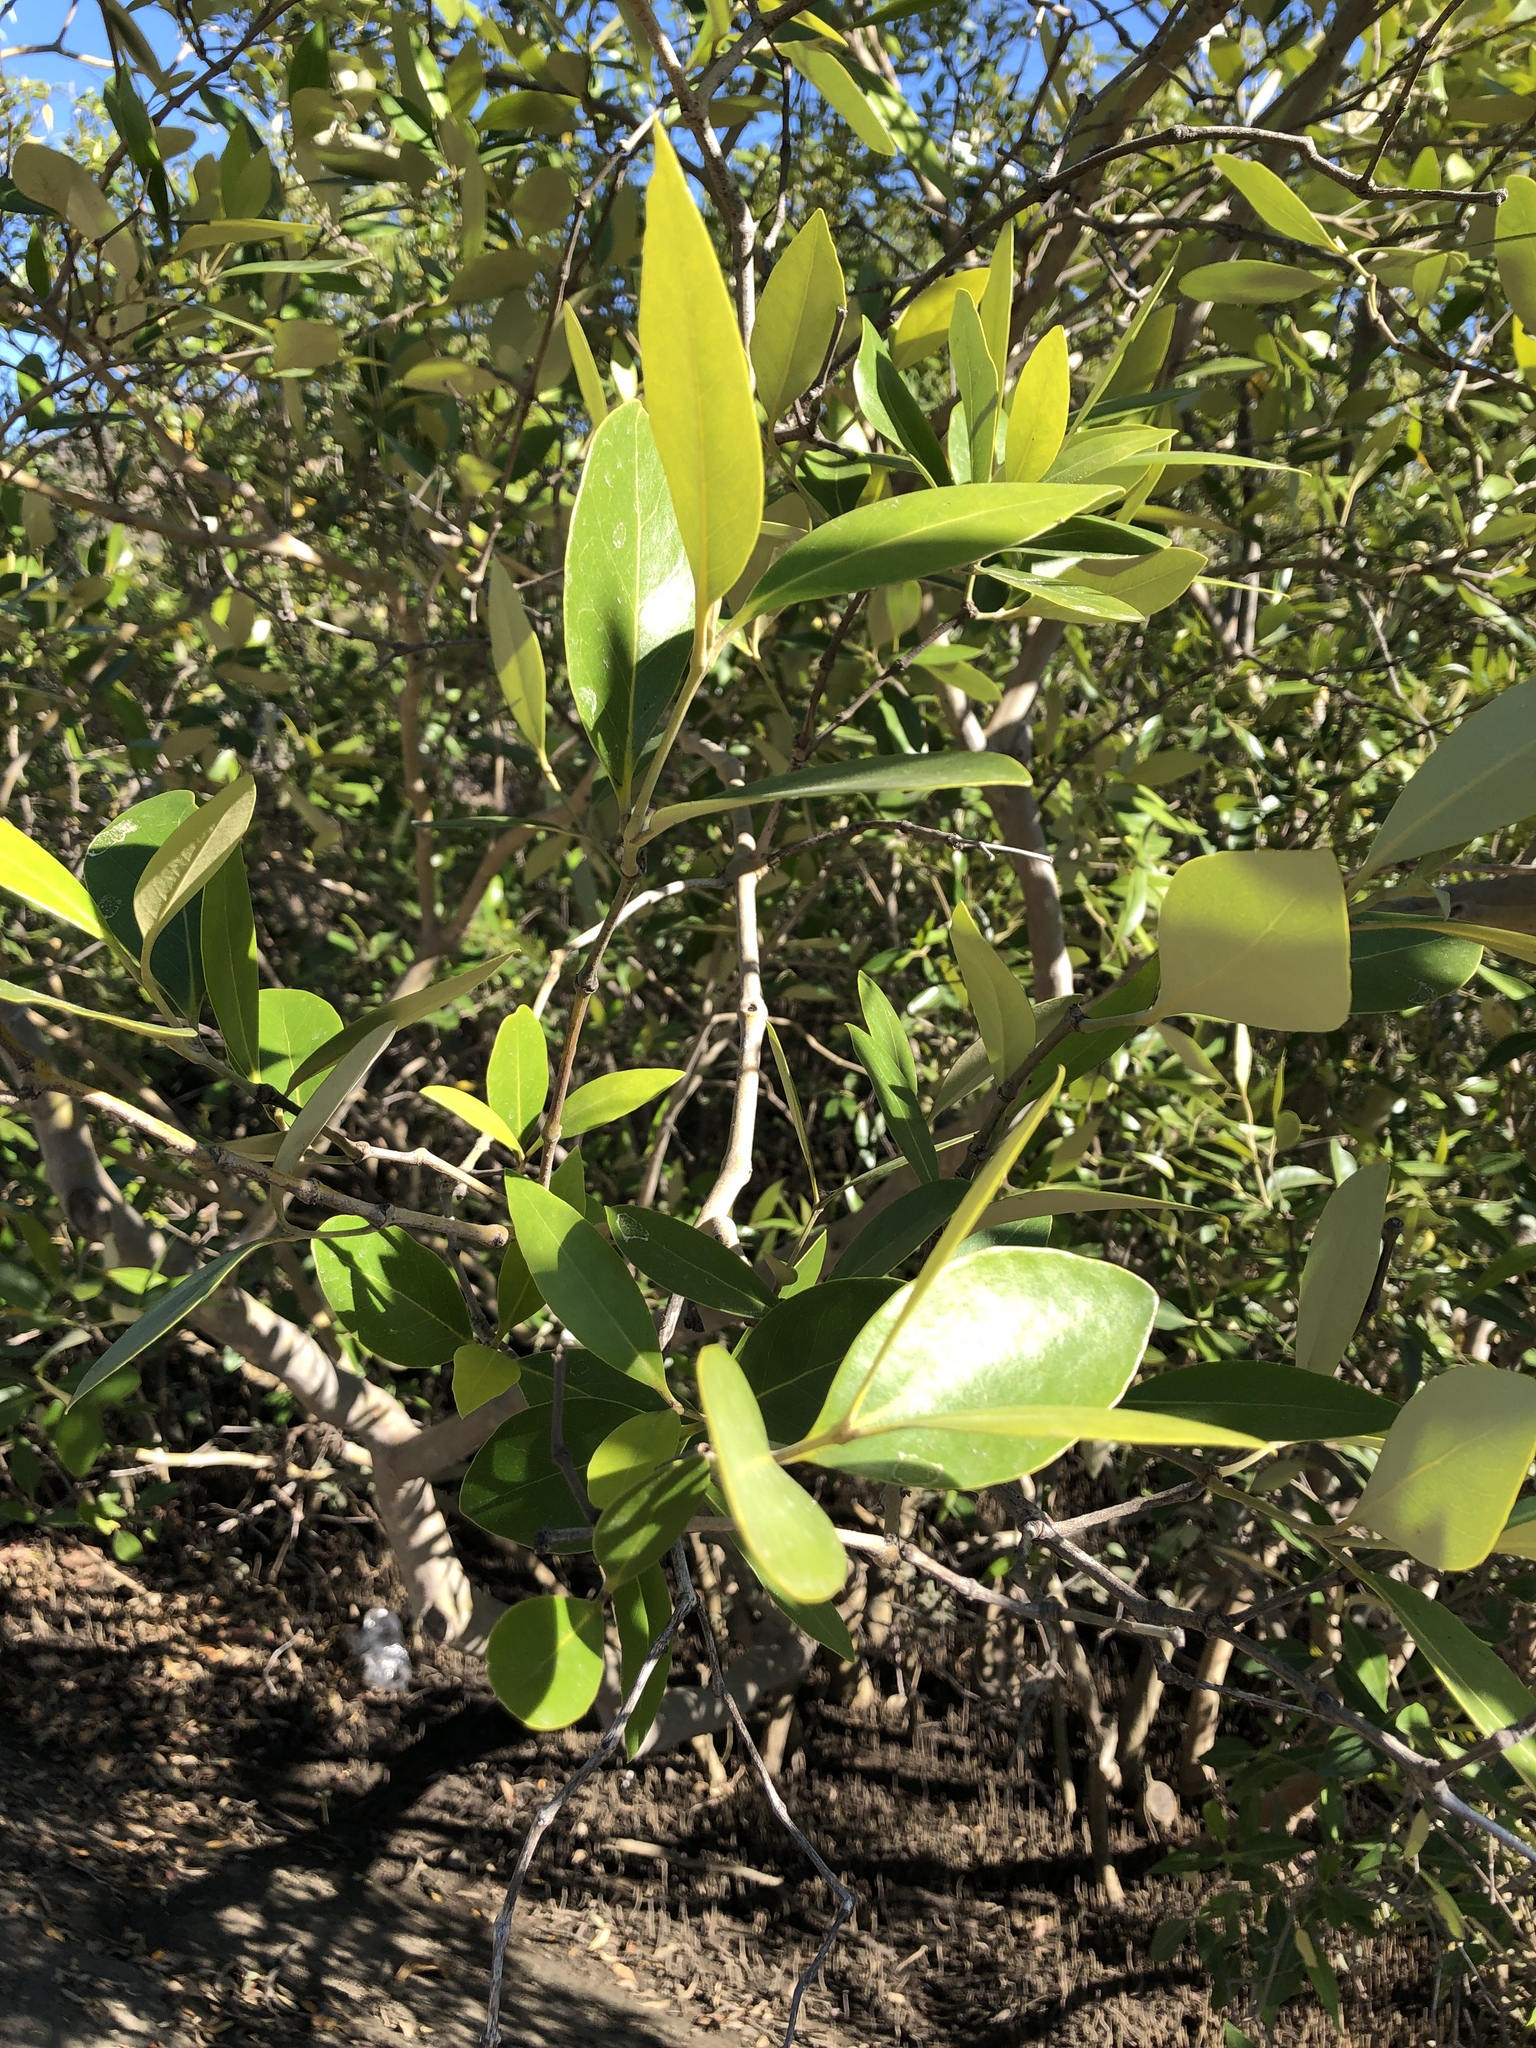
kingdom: Plantae
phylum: Tracheophyta
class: Magnoliopsida
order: Lamiales
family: Acanthaceae
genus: Avicennia
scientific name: Avicennia marina
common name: Gray mangrove
